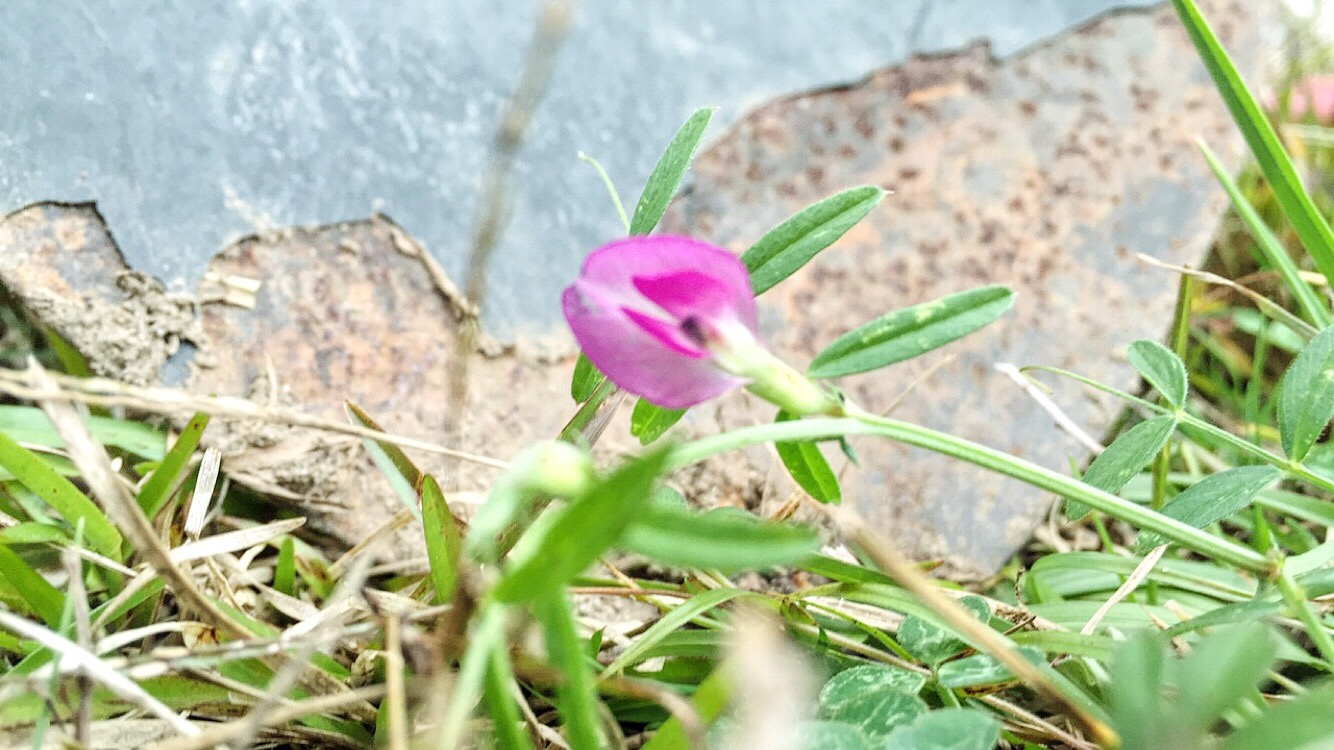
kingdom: Plantae
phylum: Tracheophyta
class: Magnoliopsida
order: Fabales
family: Fabaceae
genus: Vicia
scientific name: Vicia sativa
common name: Garden vetch
